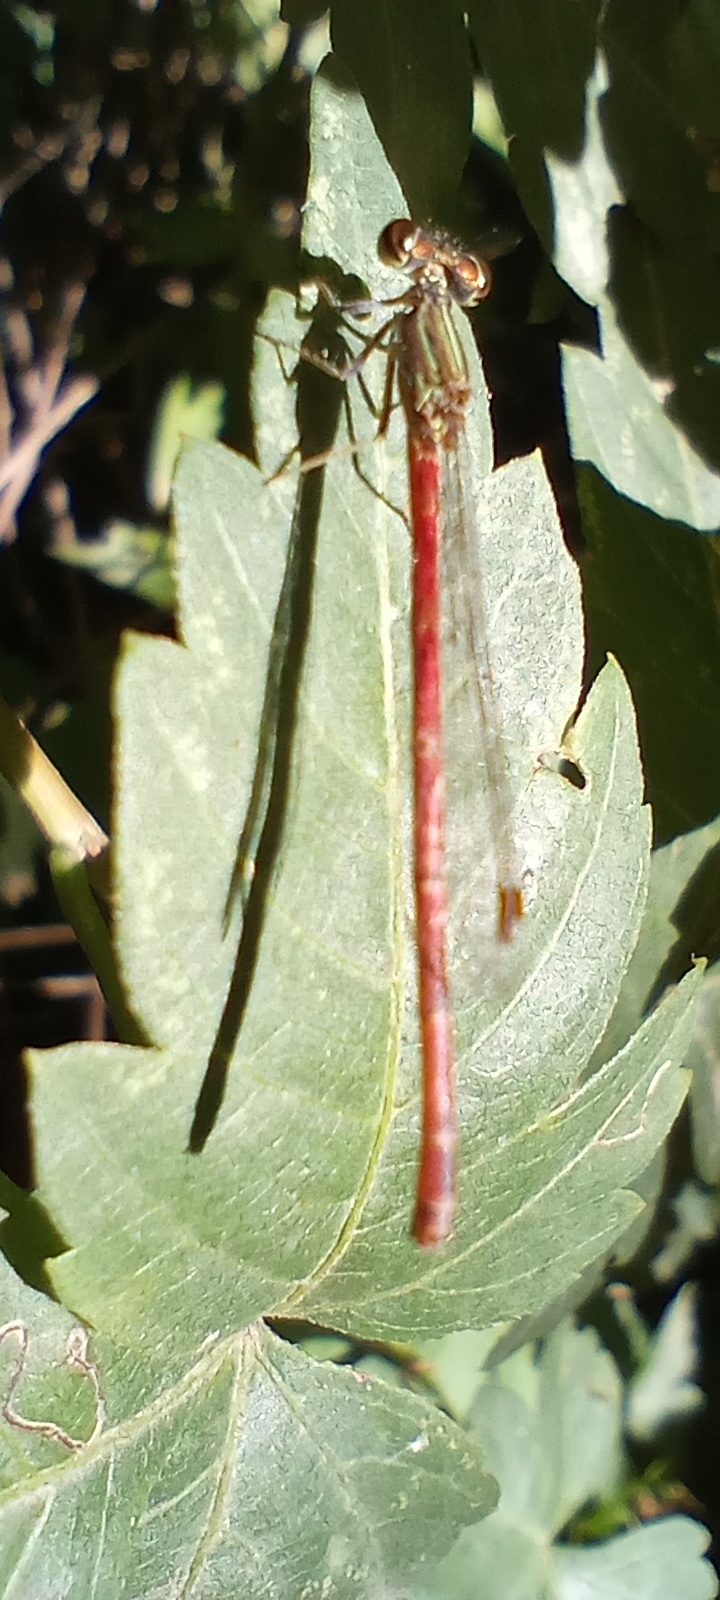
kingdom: Animalia
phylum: Arthropoda
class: Insecta
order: Odonata
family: Coenagrionidae
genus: Telebasis
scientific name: Telebasis willinki
